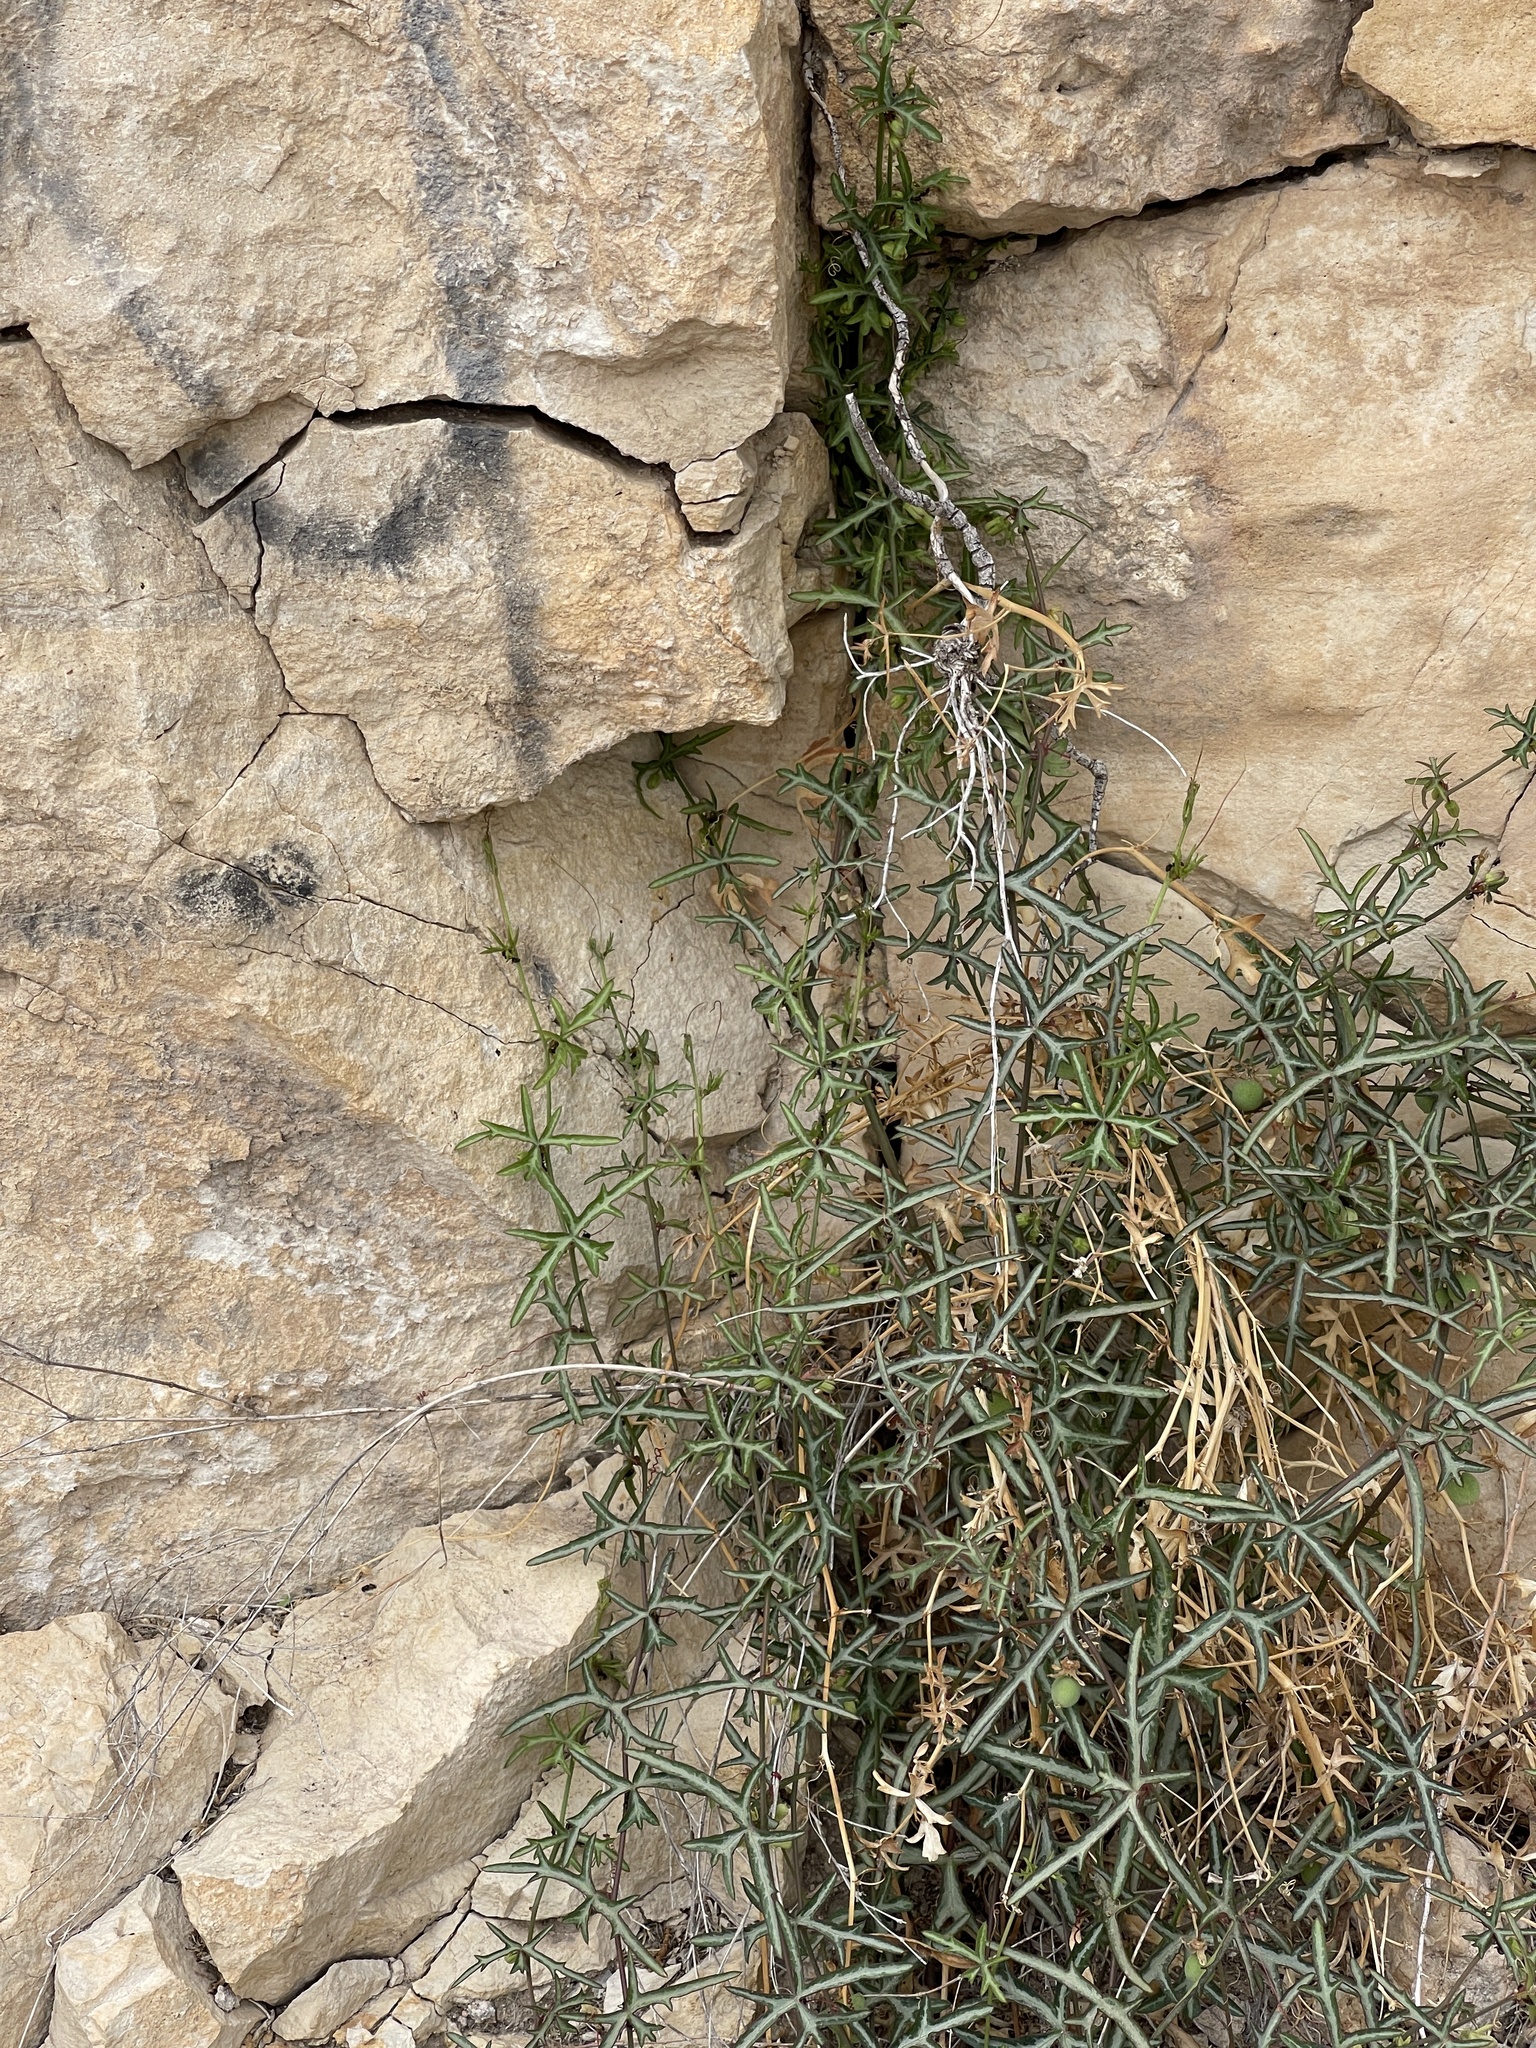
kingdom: Plantae
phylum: Tracheophyta
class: Magnoliopsida
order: Malpighiales
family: Passifloraceae
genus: Passiflora
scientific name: Passiflora tenuiloba
